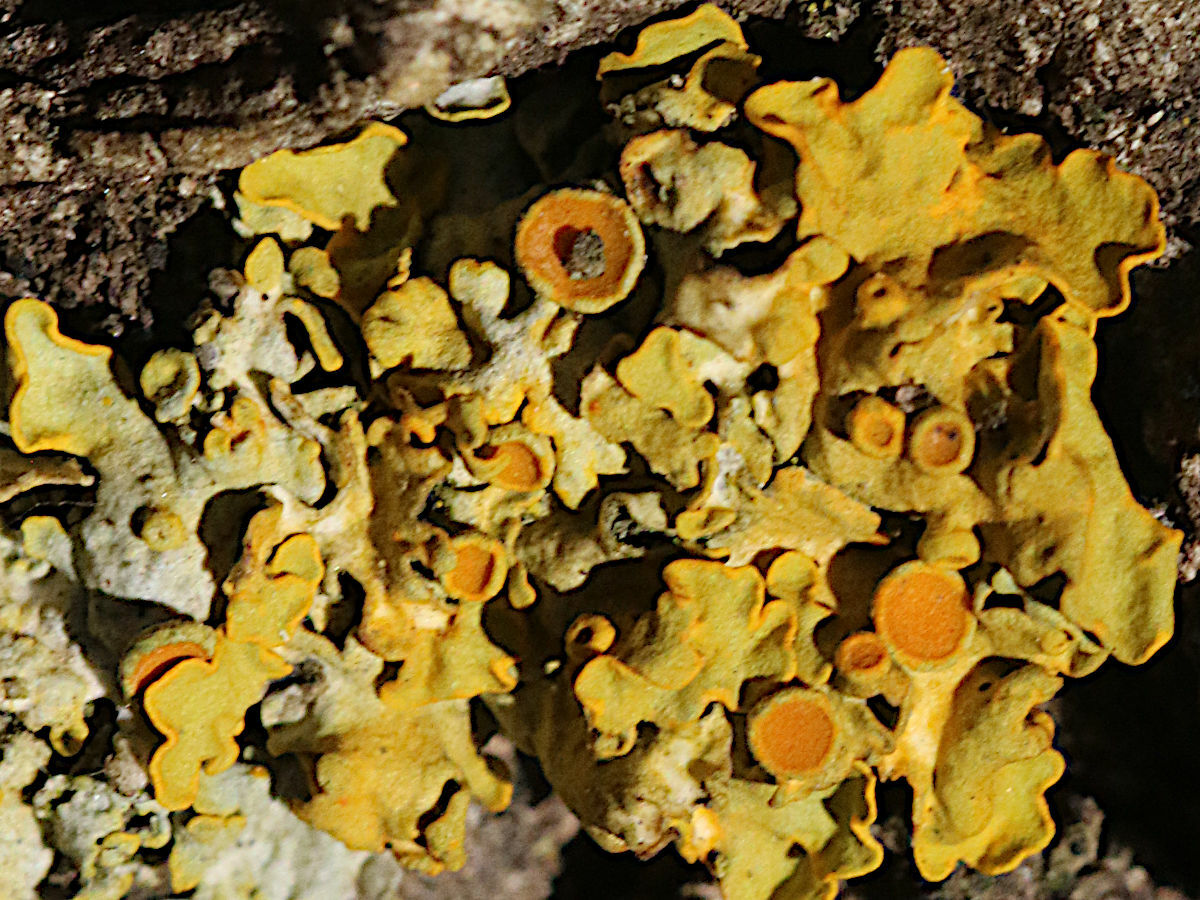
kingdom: Fungi
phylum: Ascomycota
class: Lecanoromycetes
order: Teloschistales
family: Teloschistaceae
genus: Xanthoria
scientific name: Xanthoria parietina
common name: Common orange lichen
